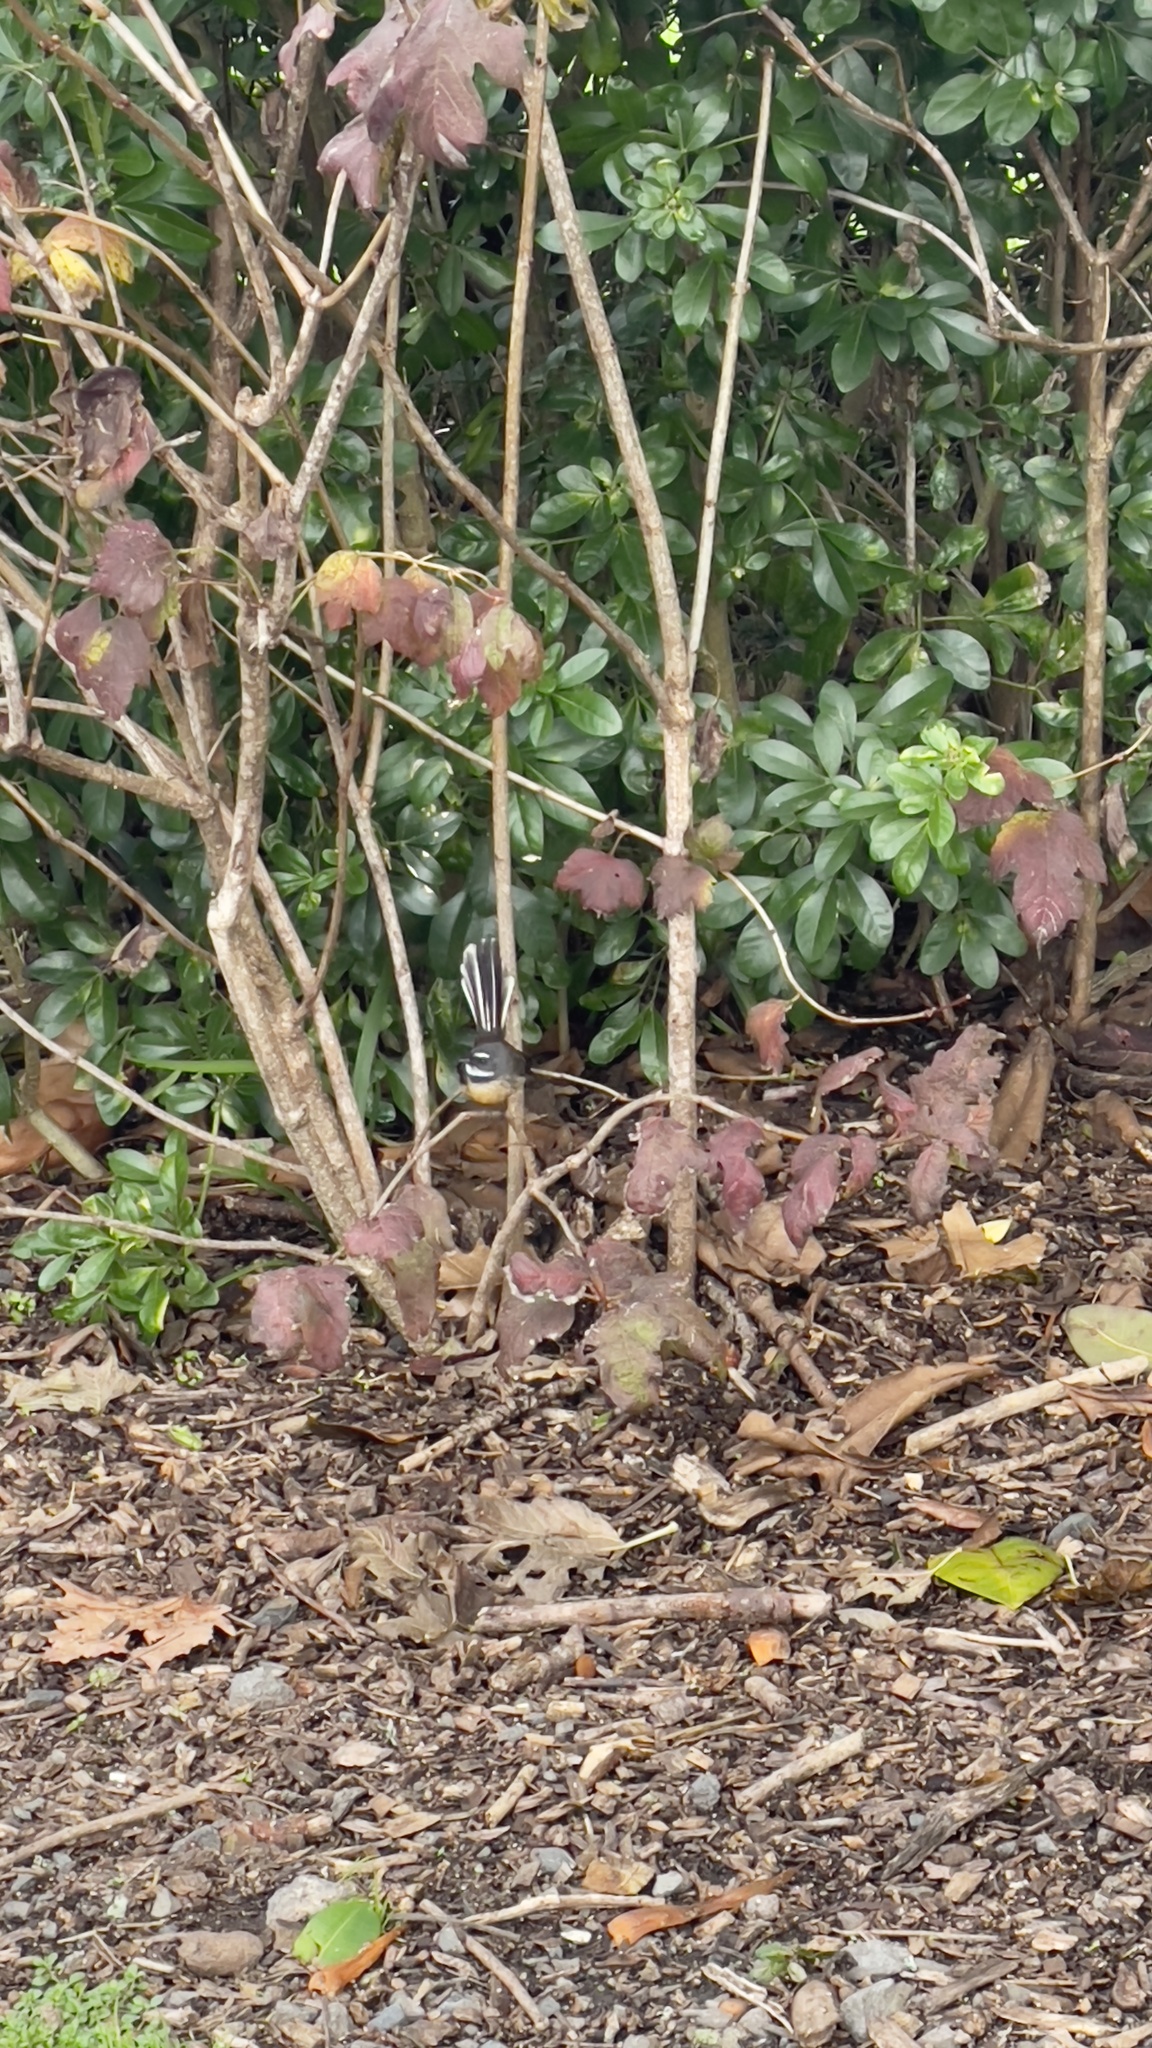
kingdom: Animalia
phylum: Chordata
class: Aves
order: Passeriformes
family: Rhipiduridae
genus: Rhipidura
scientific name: Rhipidura fuliginosa
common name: New zealand fantail
